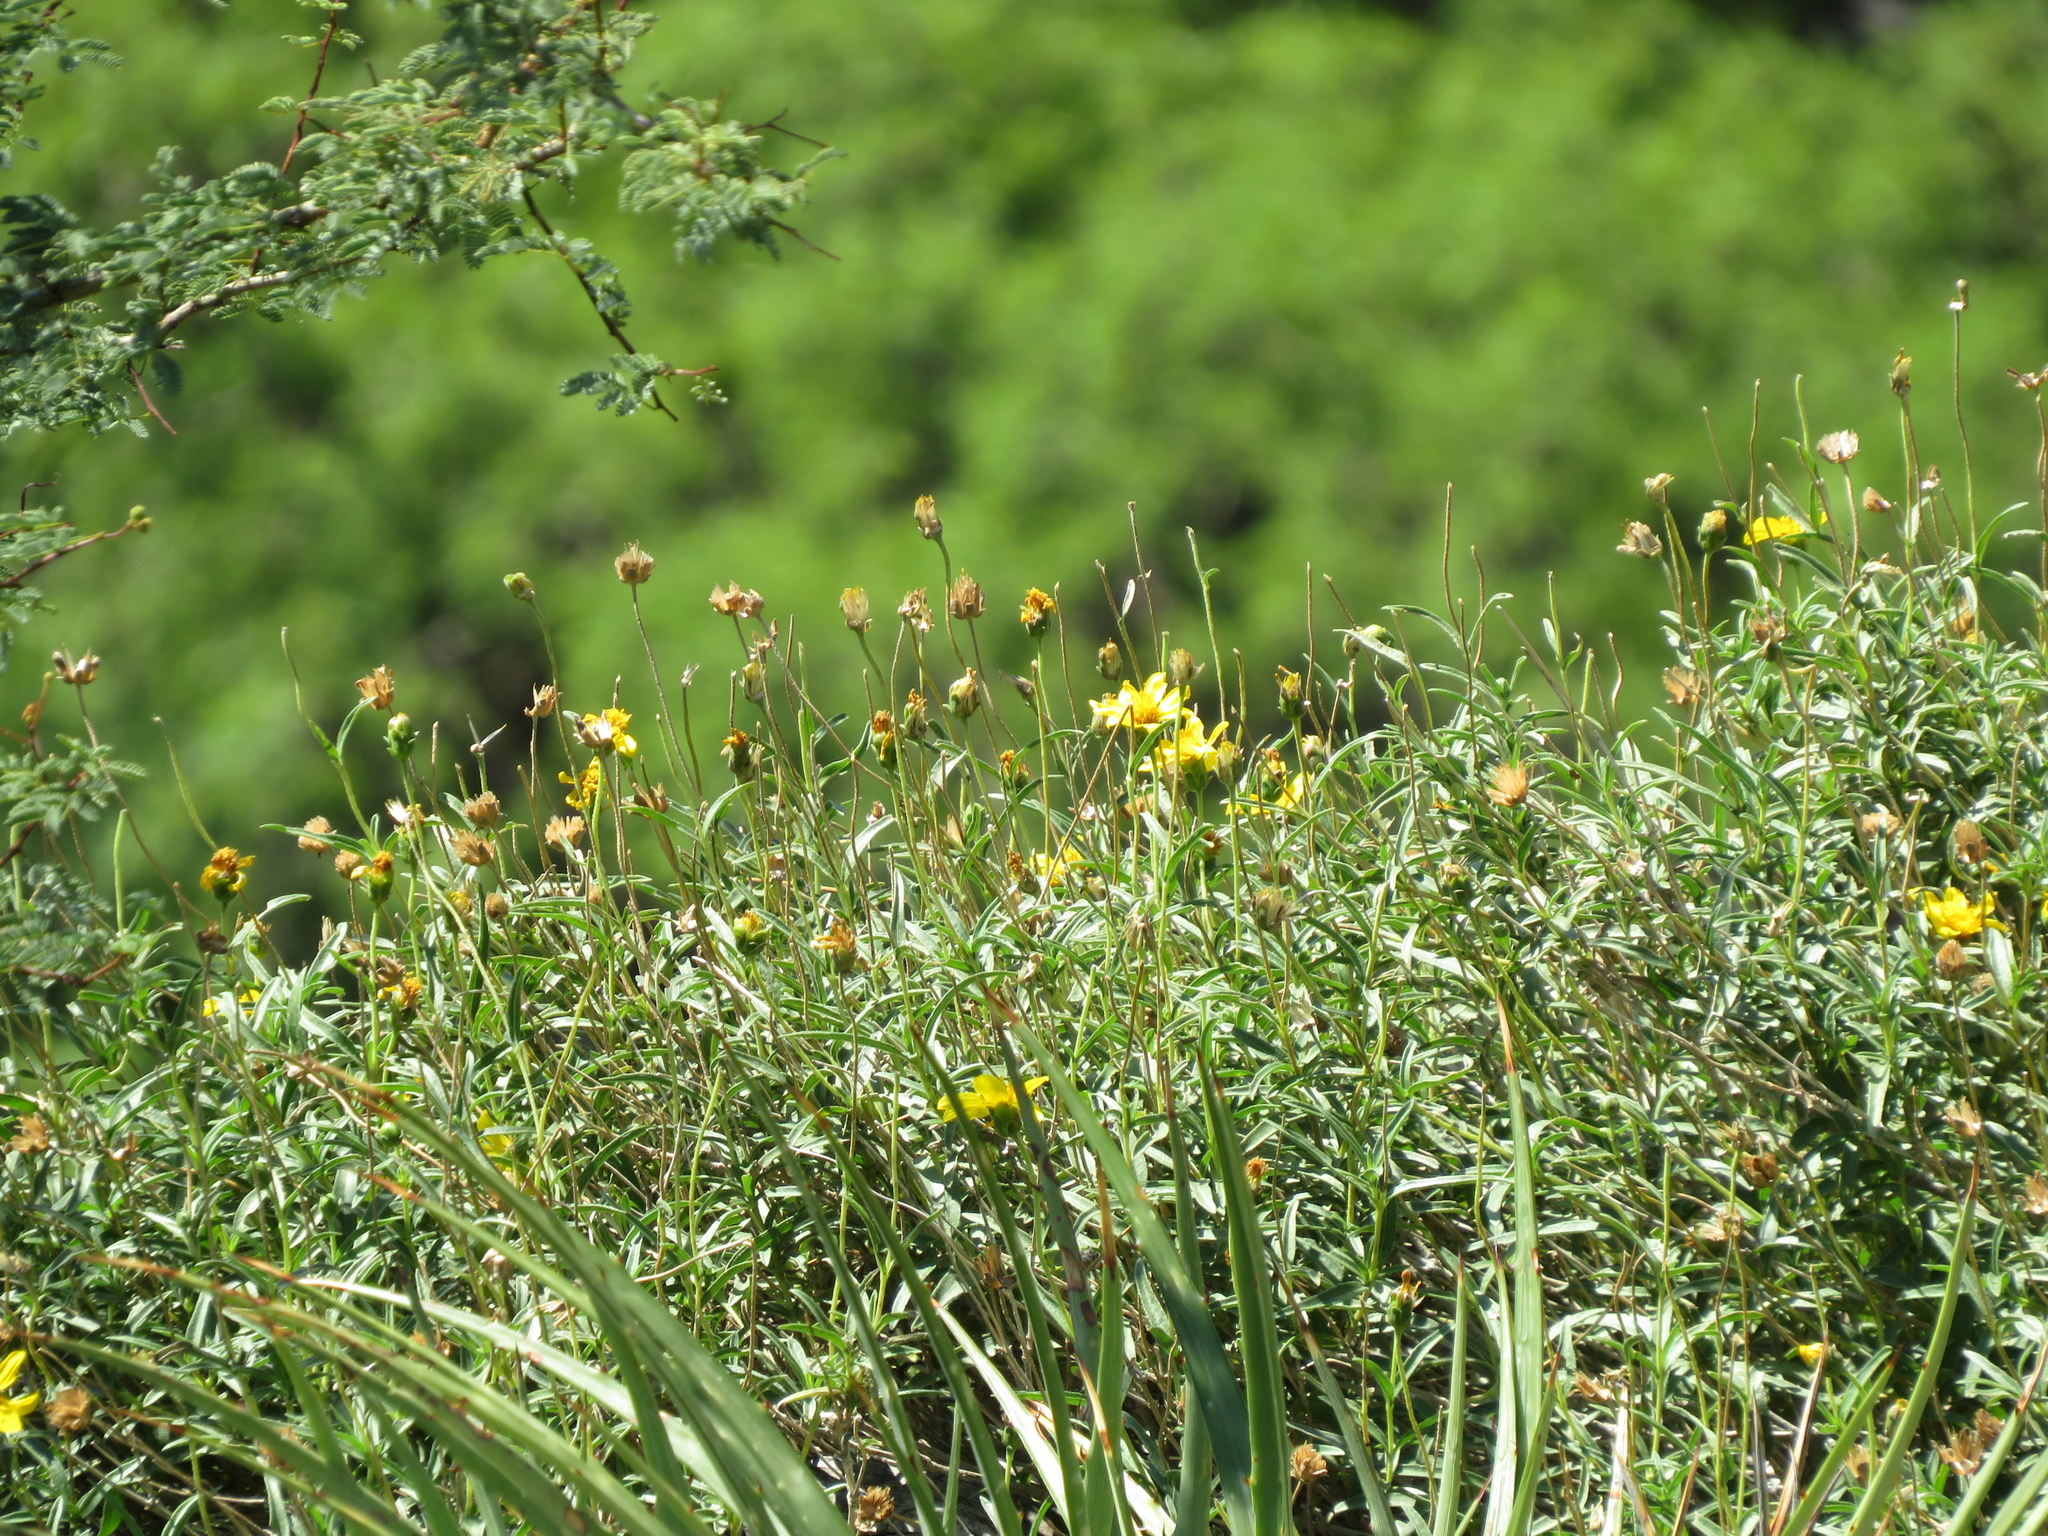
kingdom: Plantae
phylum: Tracheophyta
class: Magnoliopsida
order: Asterales
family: Asteraceae
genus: Zexmenia
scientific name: Zexmenia buphtalmiflora
